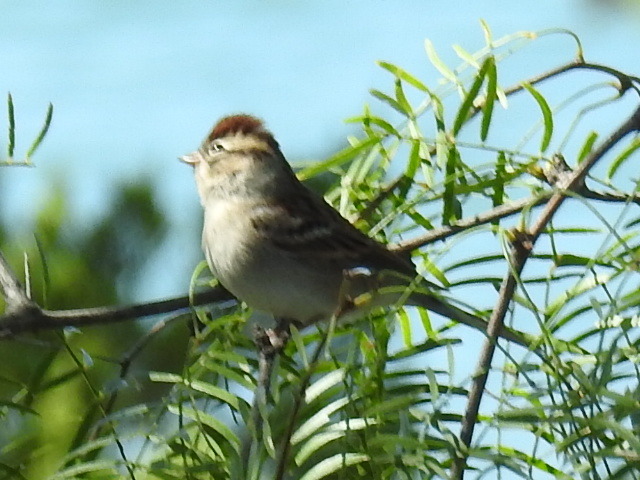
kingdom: Animalia
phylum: Chordata
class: Aves
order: Passeriformes
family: Passerellidae
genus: Spizella
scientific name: Spizella passerina
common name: Chipping sparrow
